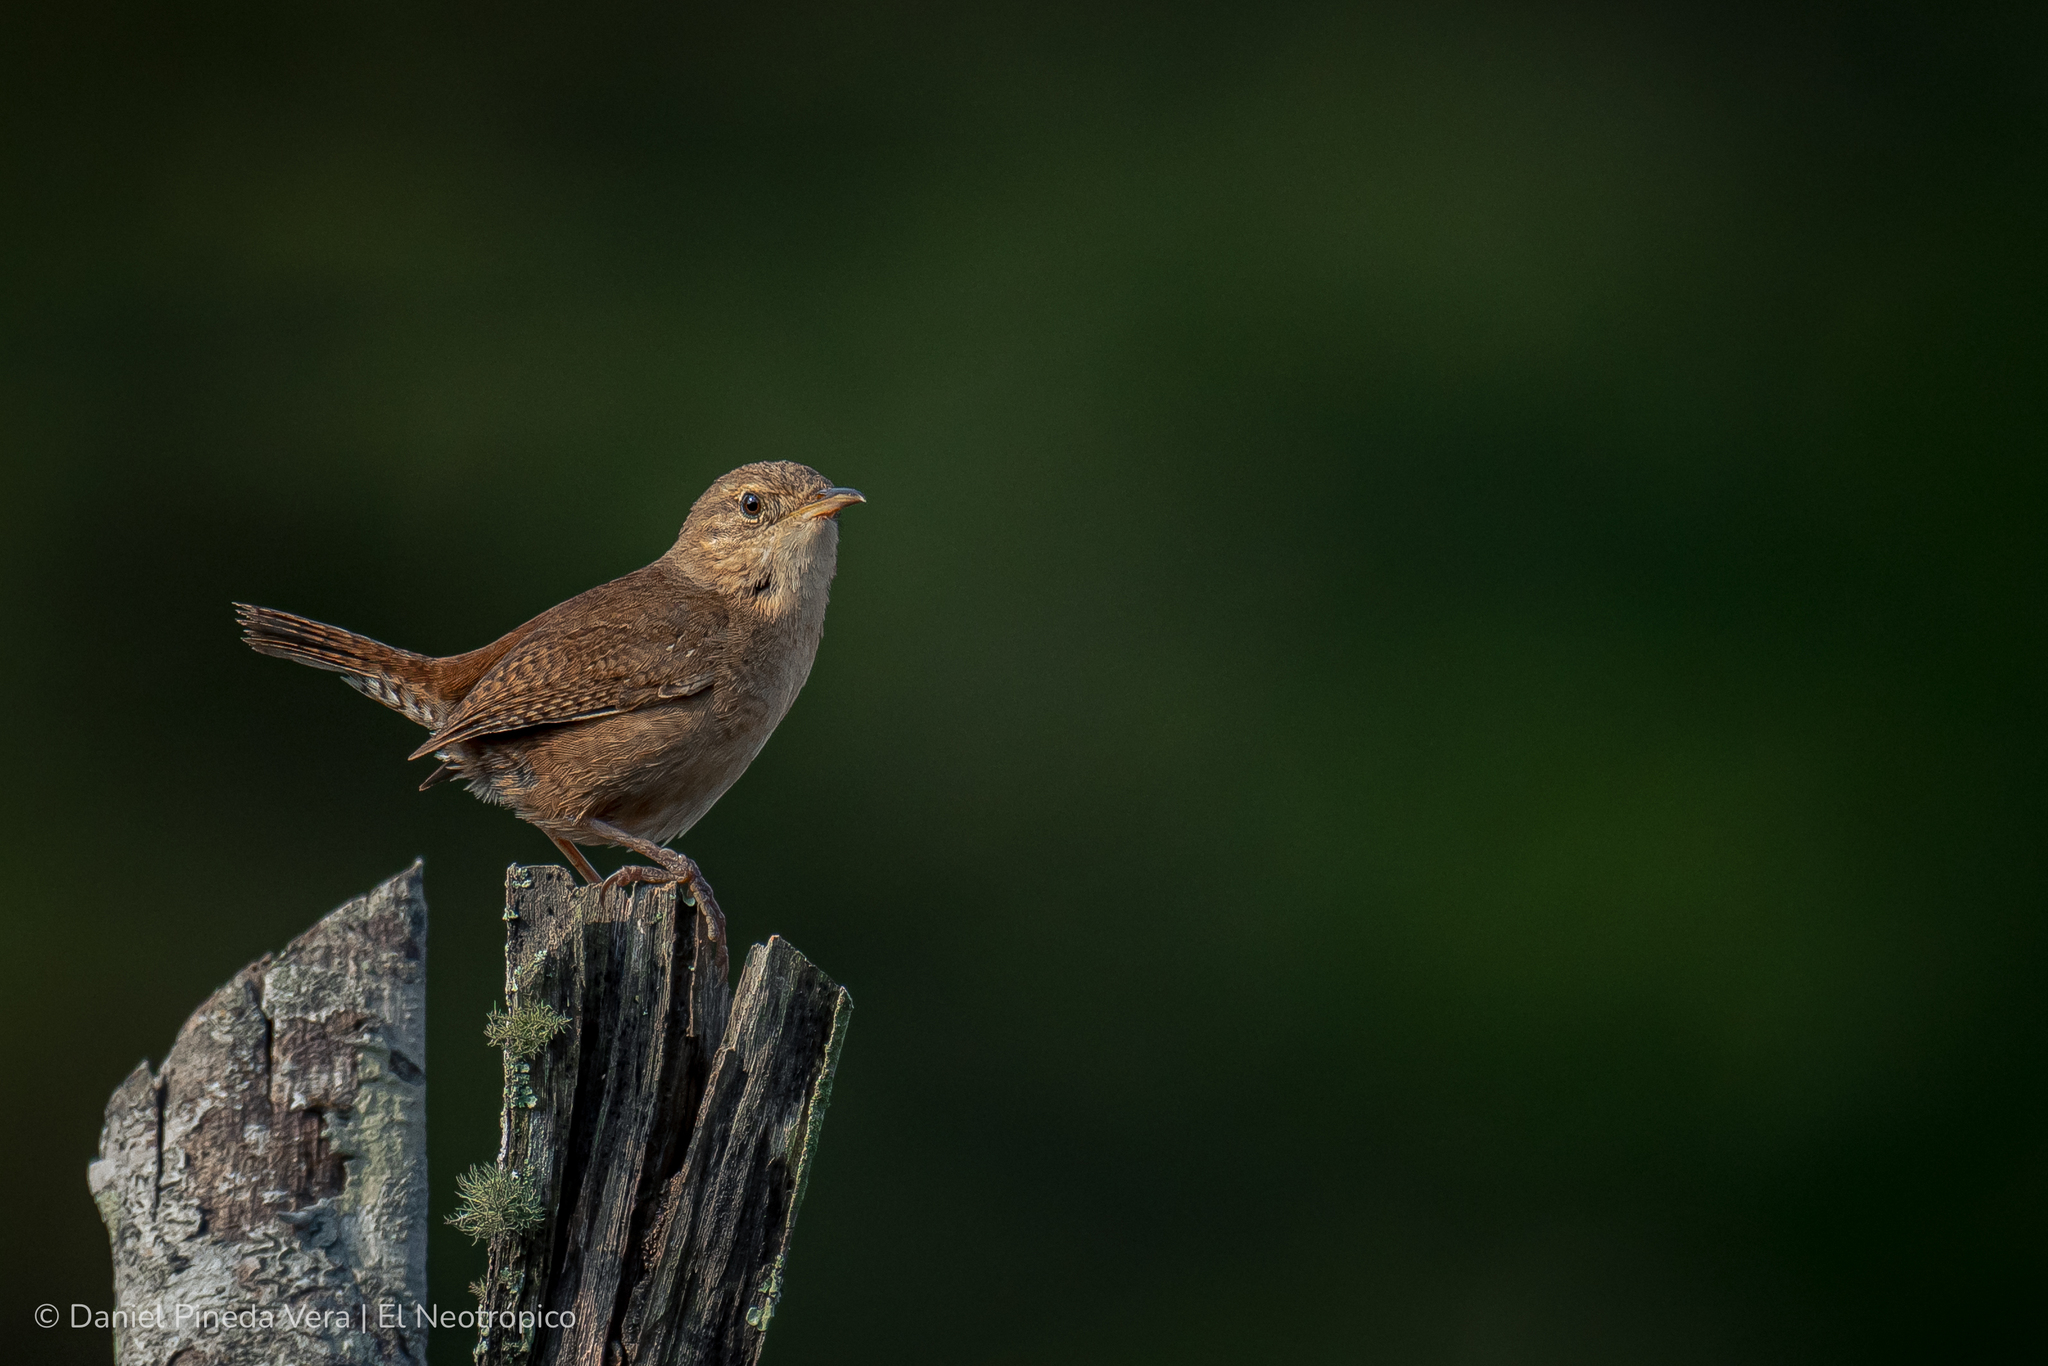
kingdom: Animalia
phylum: Chordata
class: Aves
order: Passeriformes
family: Troglodytidae
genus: Troglodytes
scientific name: Troglodytes aedon
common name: House wren
